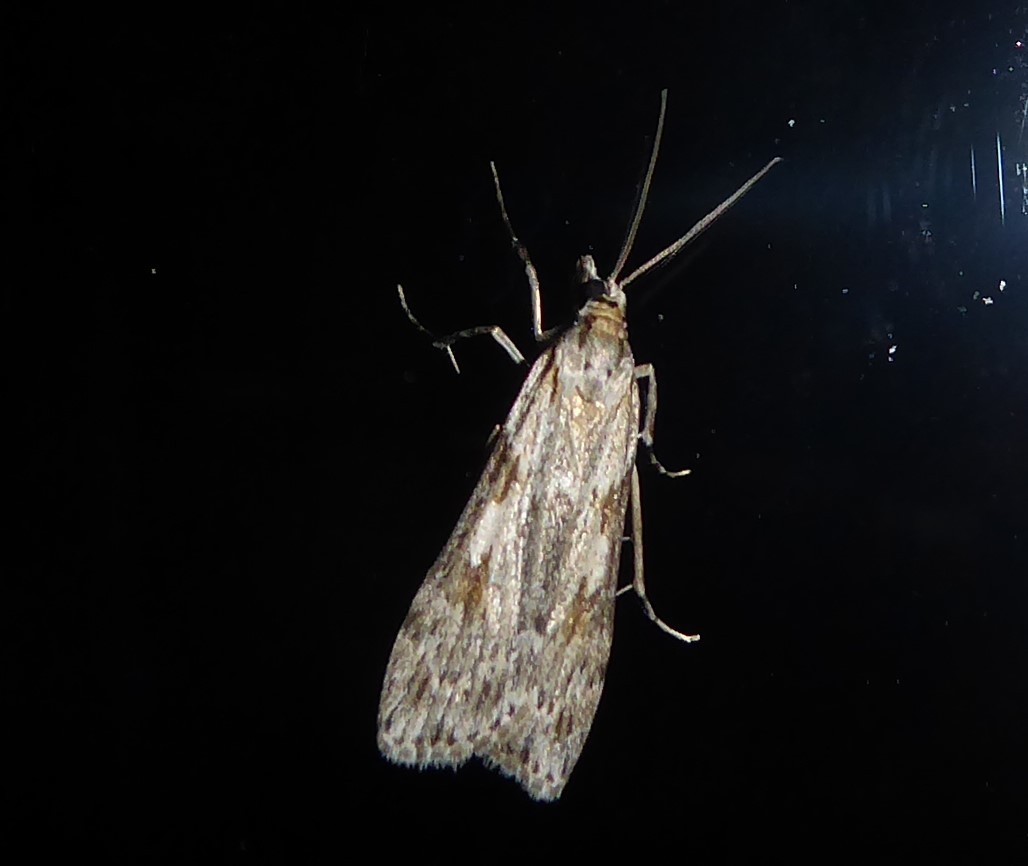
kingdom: Animalia
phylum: Arthropoda
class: Insecta
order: Lepidoptera
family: Crambidae
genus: Scoparia
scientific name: Scoparia halopis
